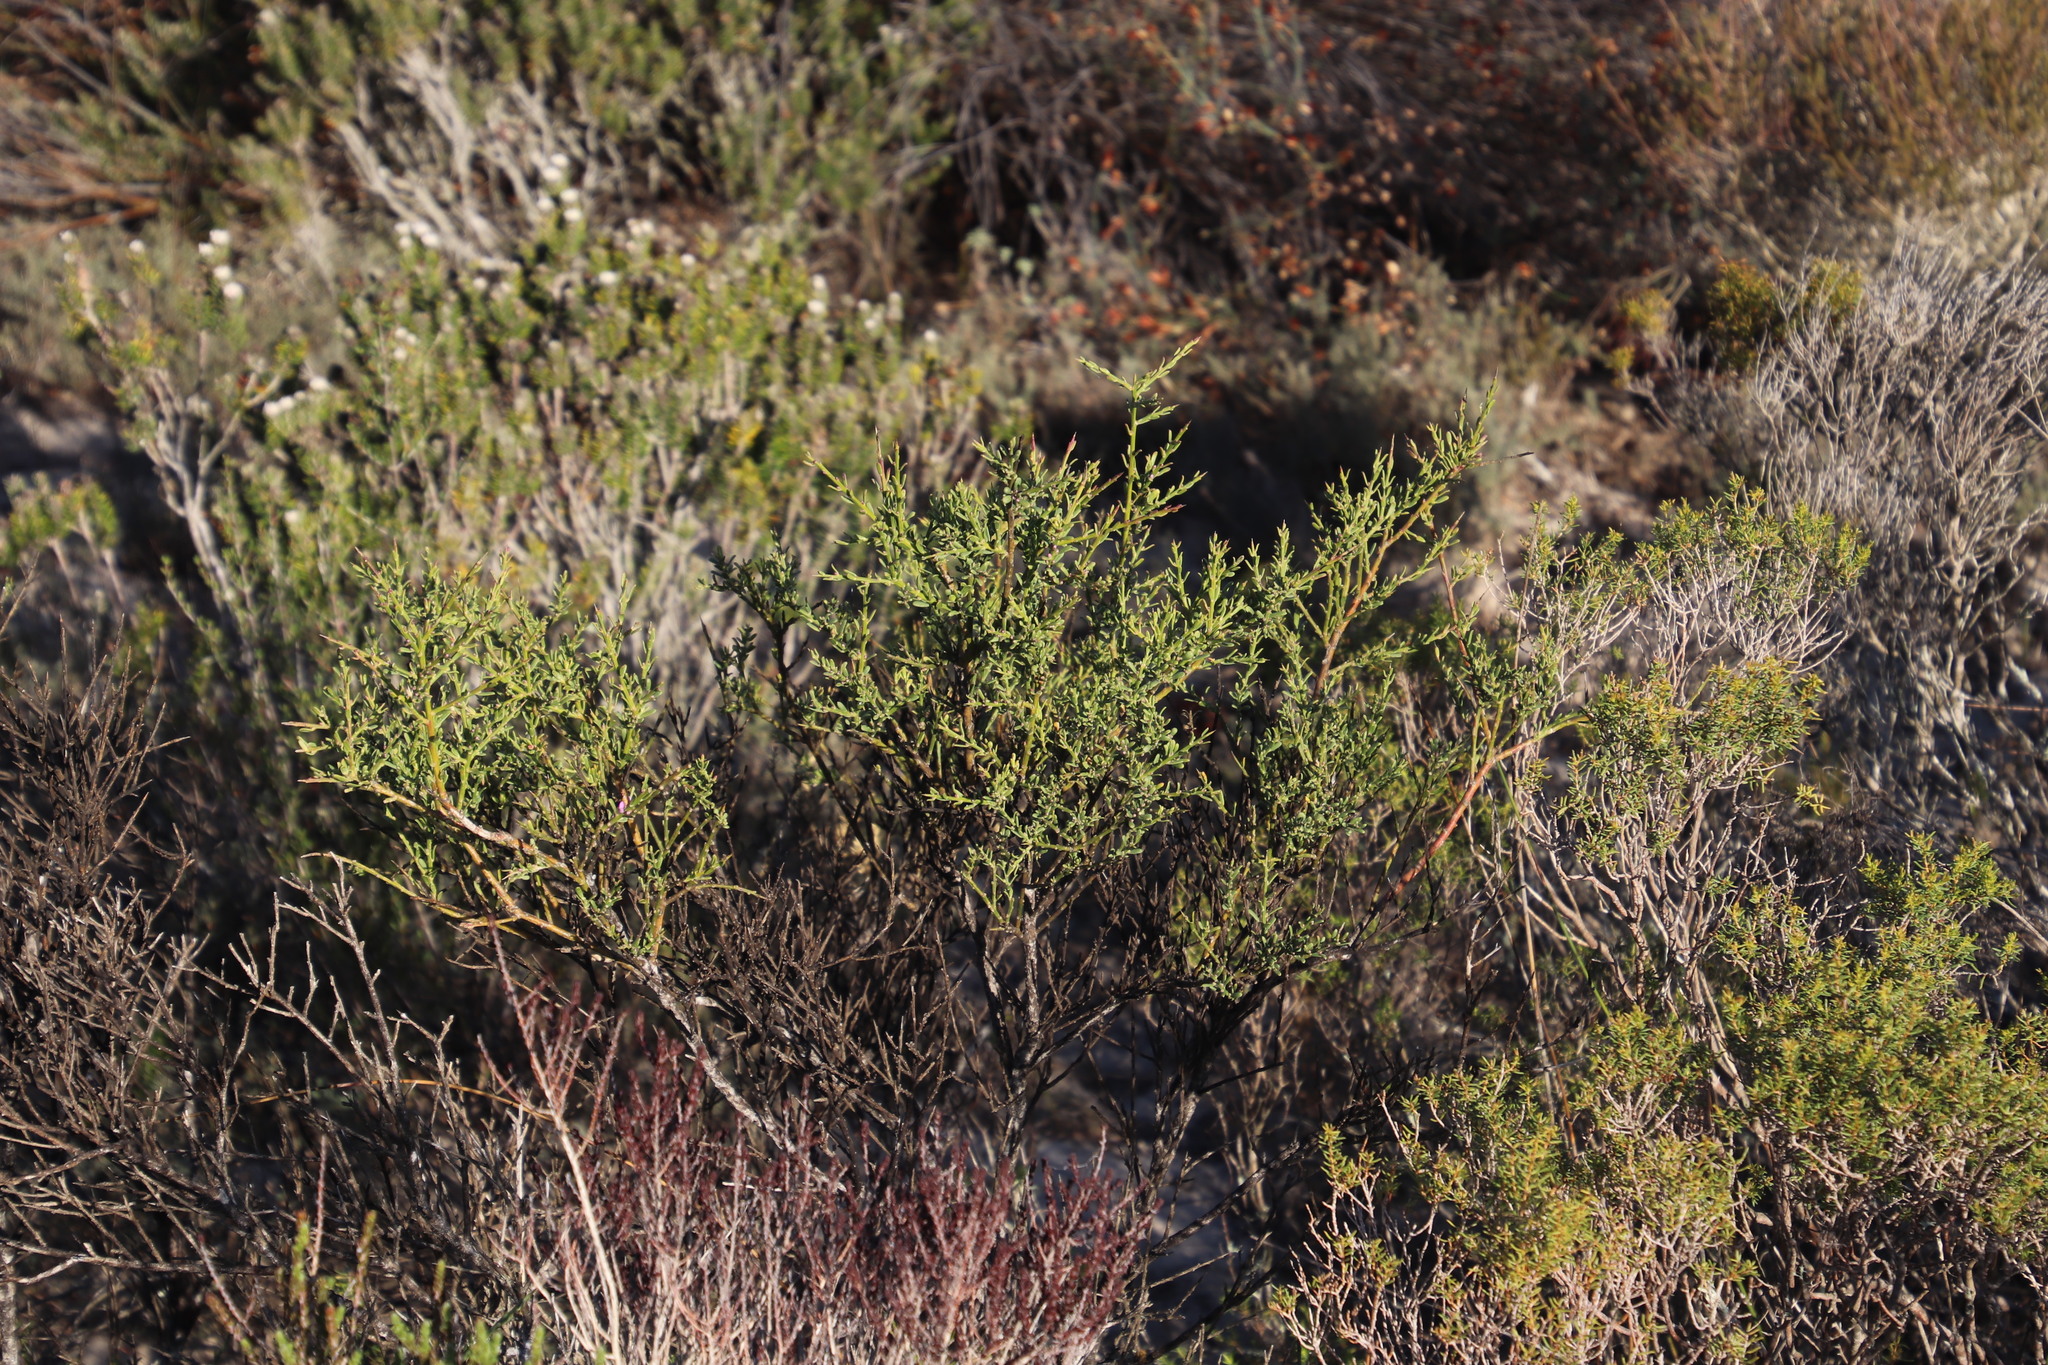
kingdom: Plantae
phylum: Tracheophyta
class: Magnoliopsida
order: Fabales
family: Polygalaceae
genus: Muraltia
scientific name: Muraltia spinosa
